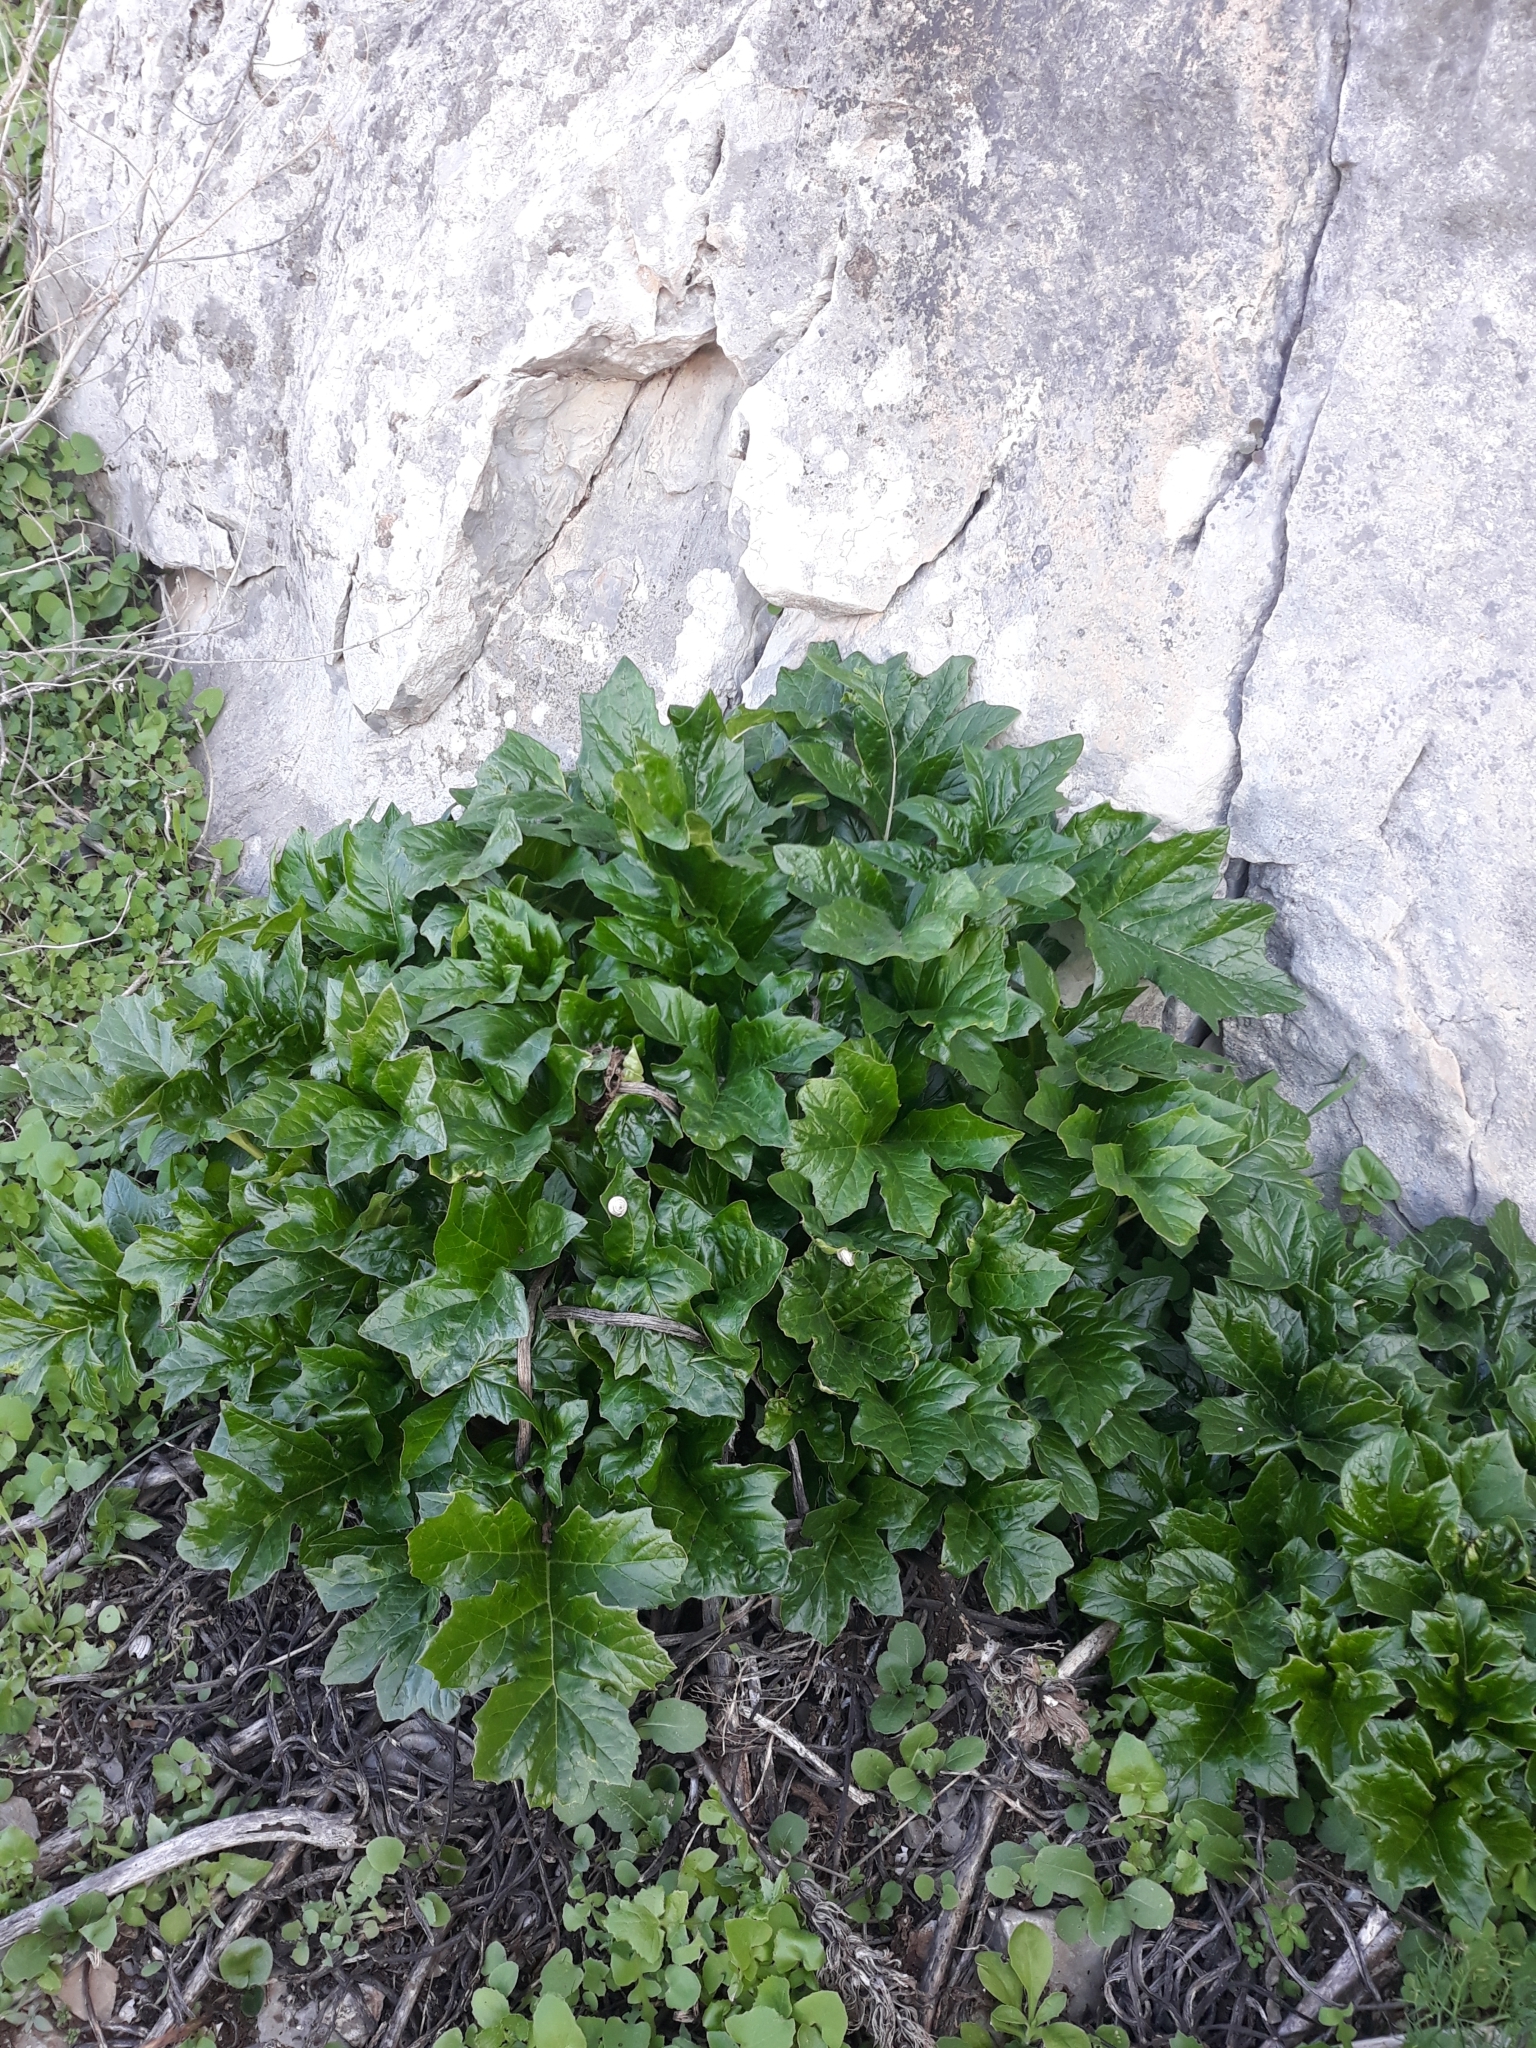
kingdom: Plantae
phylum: Tracheophyta
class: Magnoliopsida
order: Lamiales
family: Acanthaceae
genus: Acanthus
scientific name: Acanthus mollis
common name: Bear's-breech
